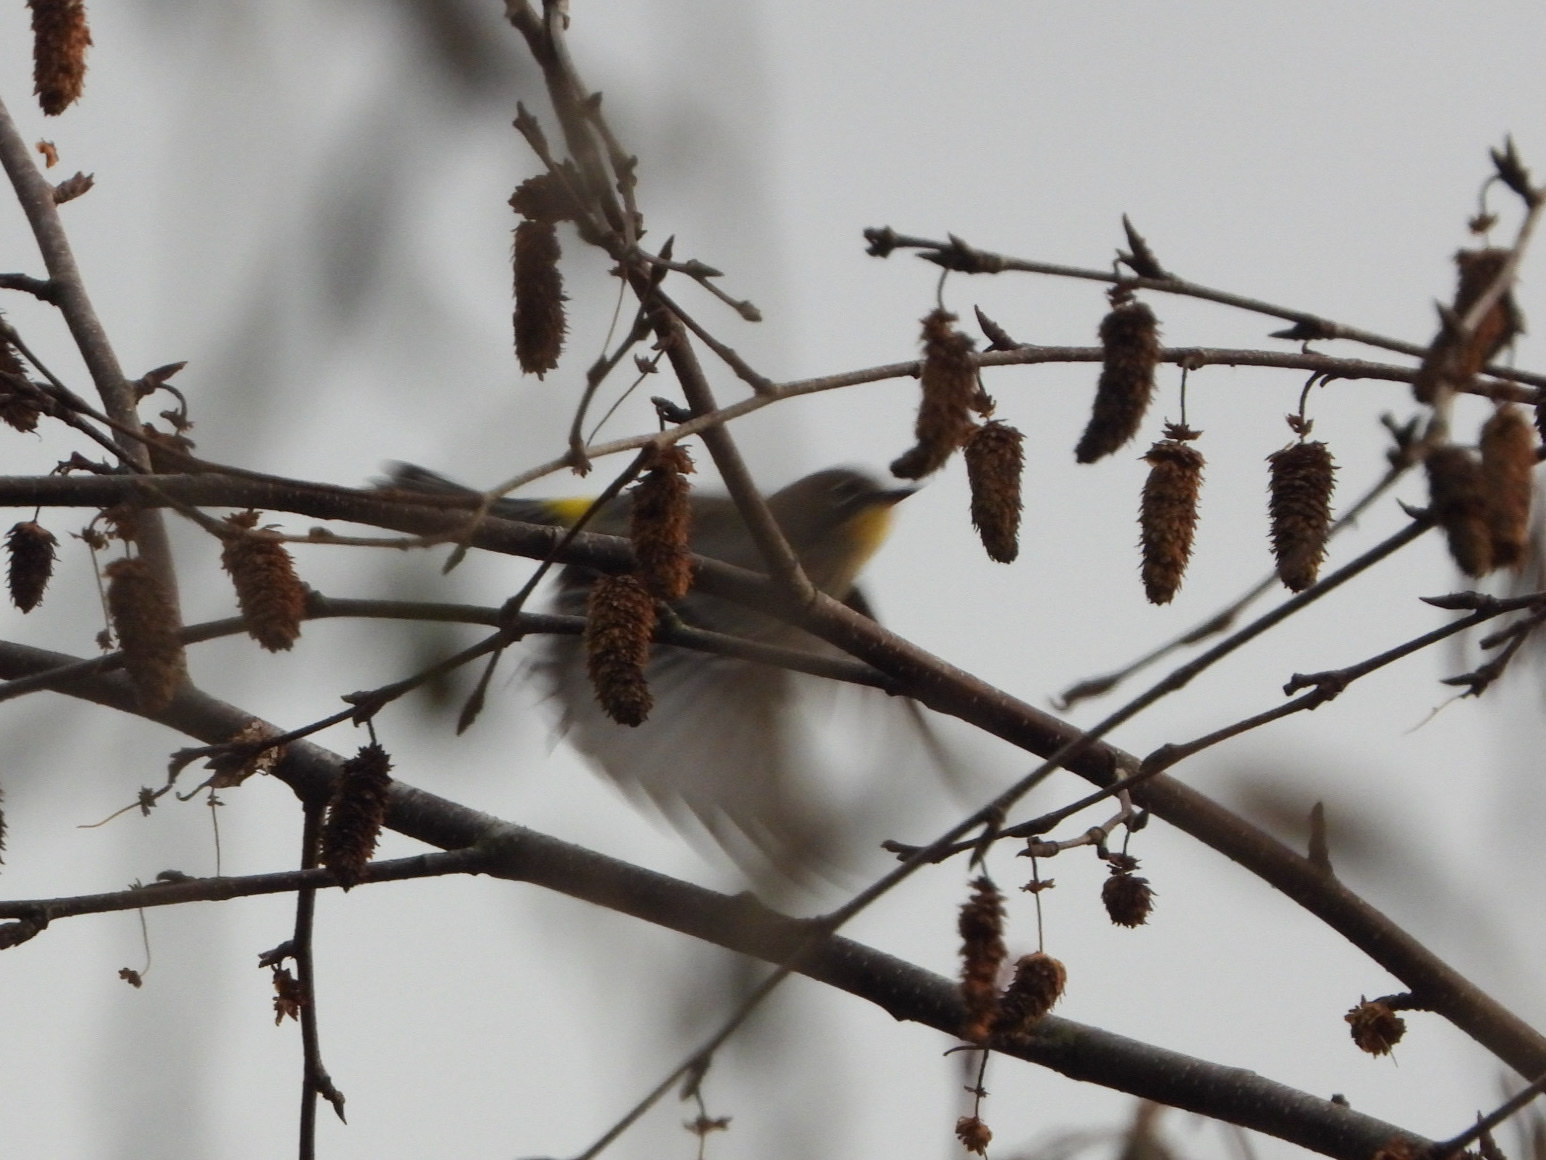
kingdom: Animalia
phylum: Chordata
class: Aves
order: Passeriformes
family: Parulidae
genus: Setophaga
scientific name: Setophaga coronata
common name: Myrtle warbler
